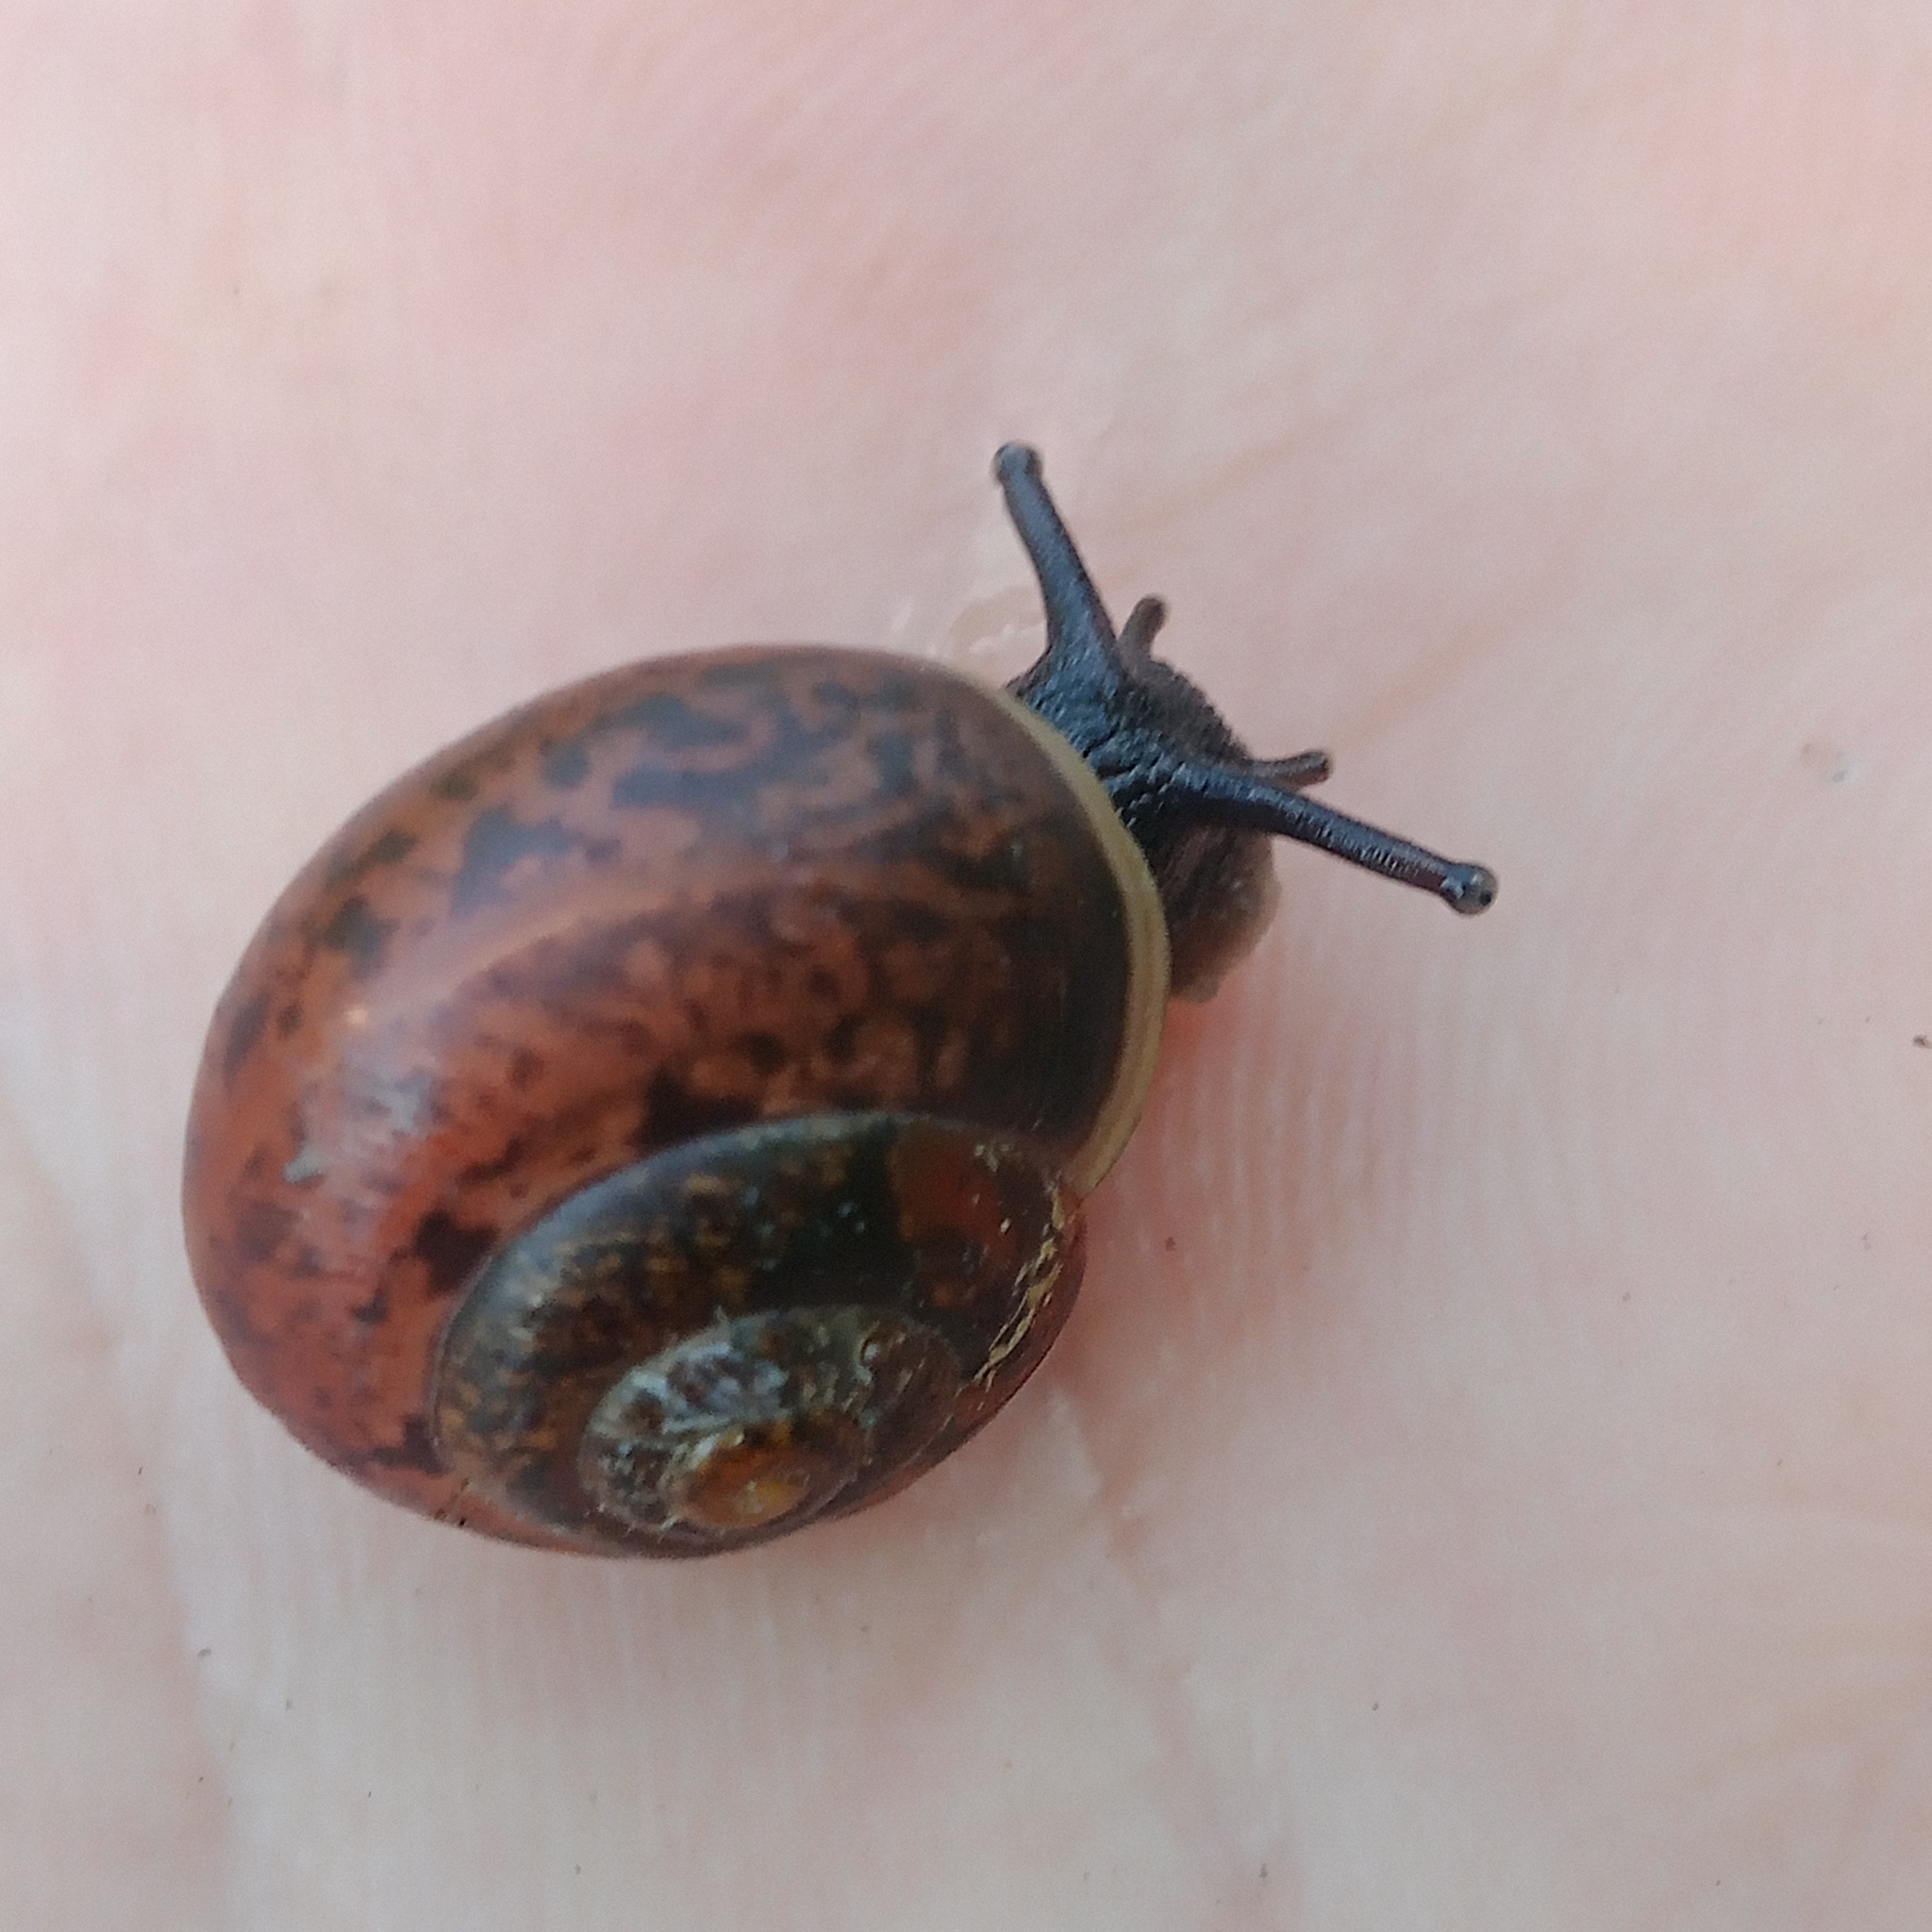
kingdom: Animalia
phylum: Mollusca
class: Gastropoda
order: Stylommatophora
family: Camaenidae
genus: Fruticicola
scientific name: Fruticicola fruticum
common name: Bush snail
